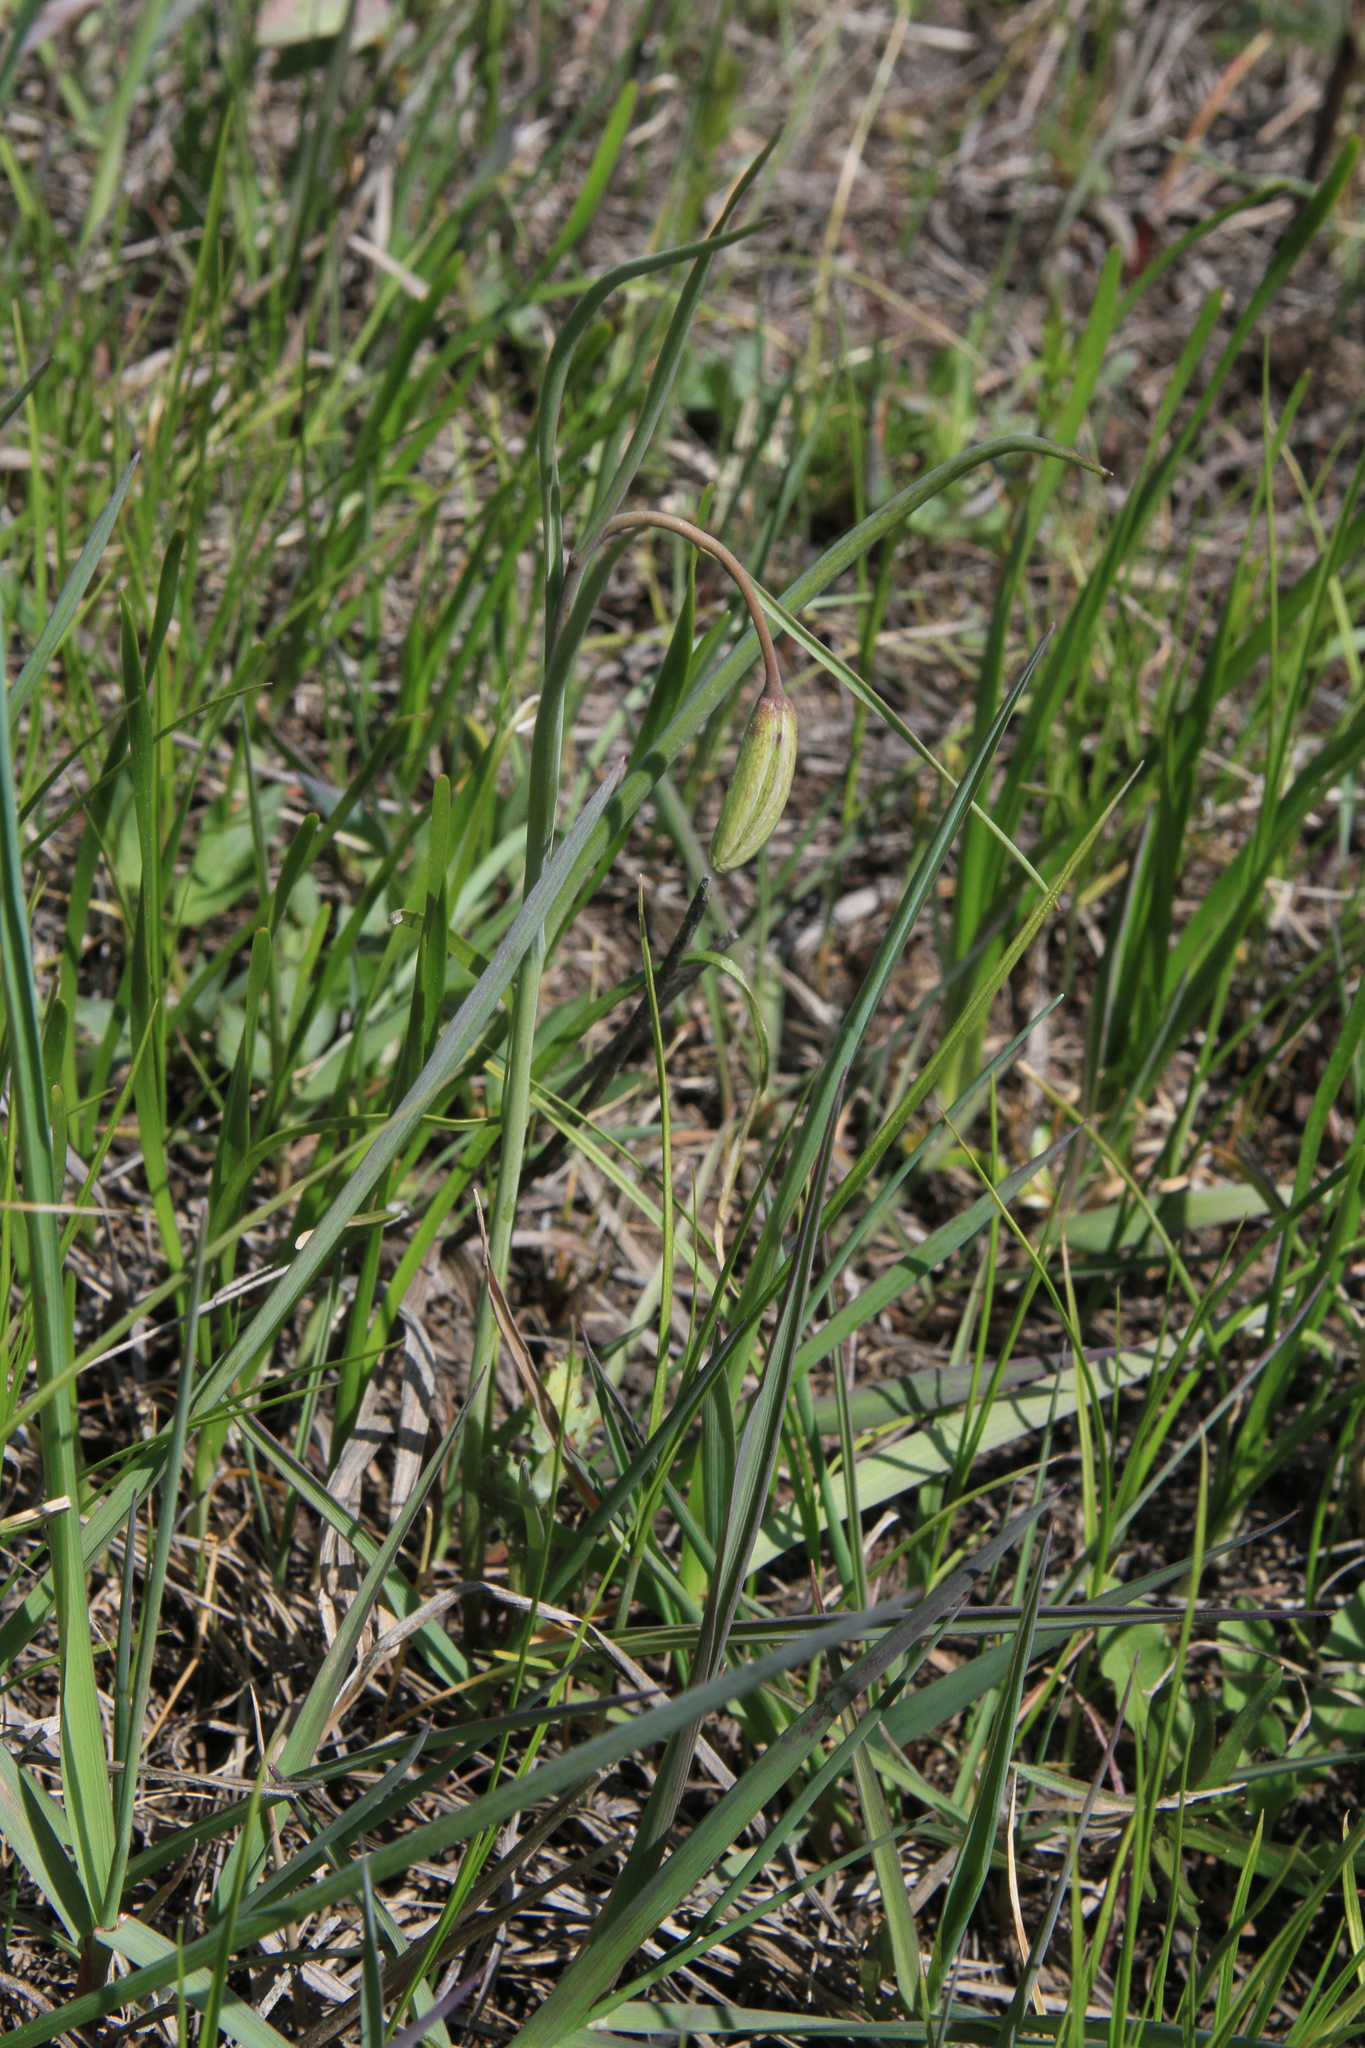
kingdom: Plantae
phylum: Tracheophyta
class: Liliopsida
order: Liliales
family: Liliaceae
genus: Fritillaria
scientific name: Fritillaria meleagroides
